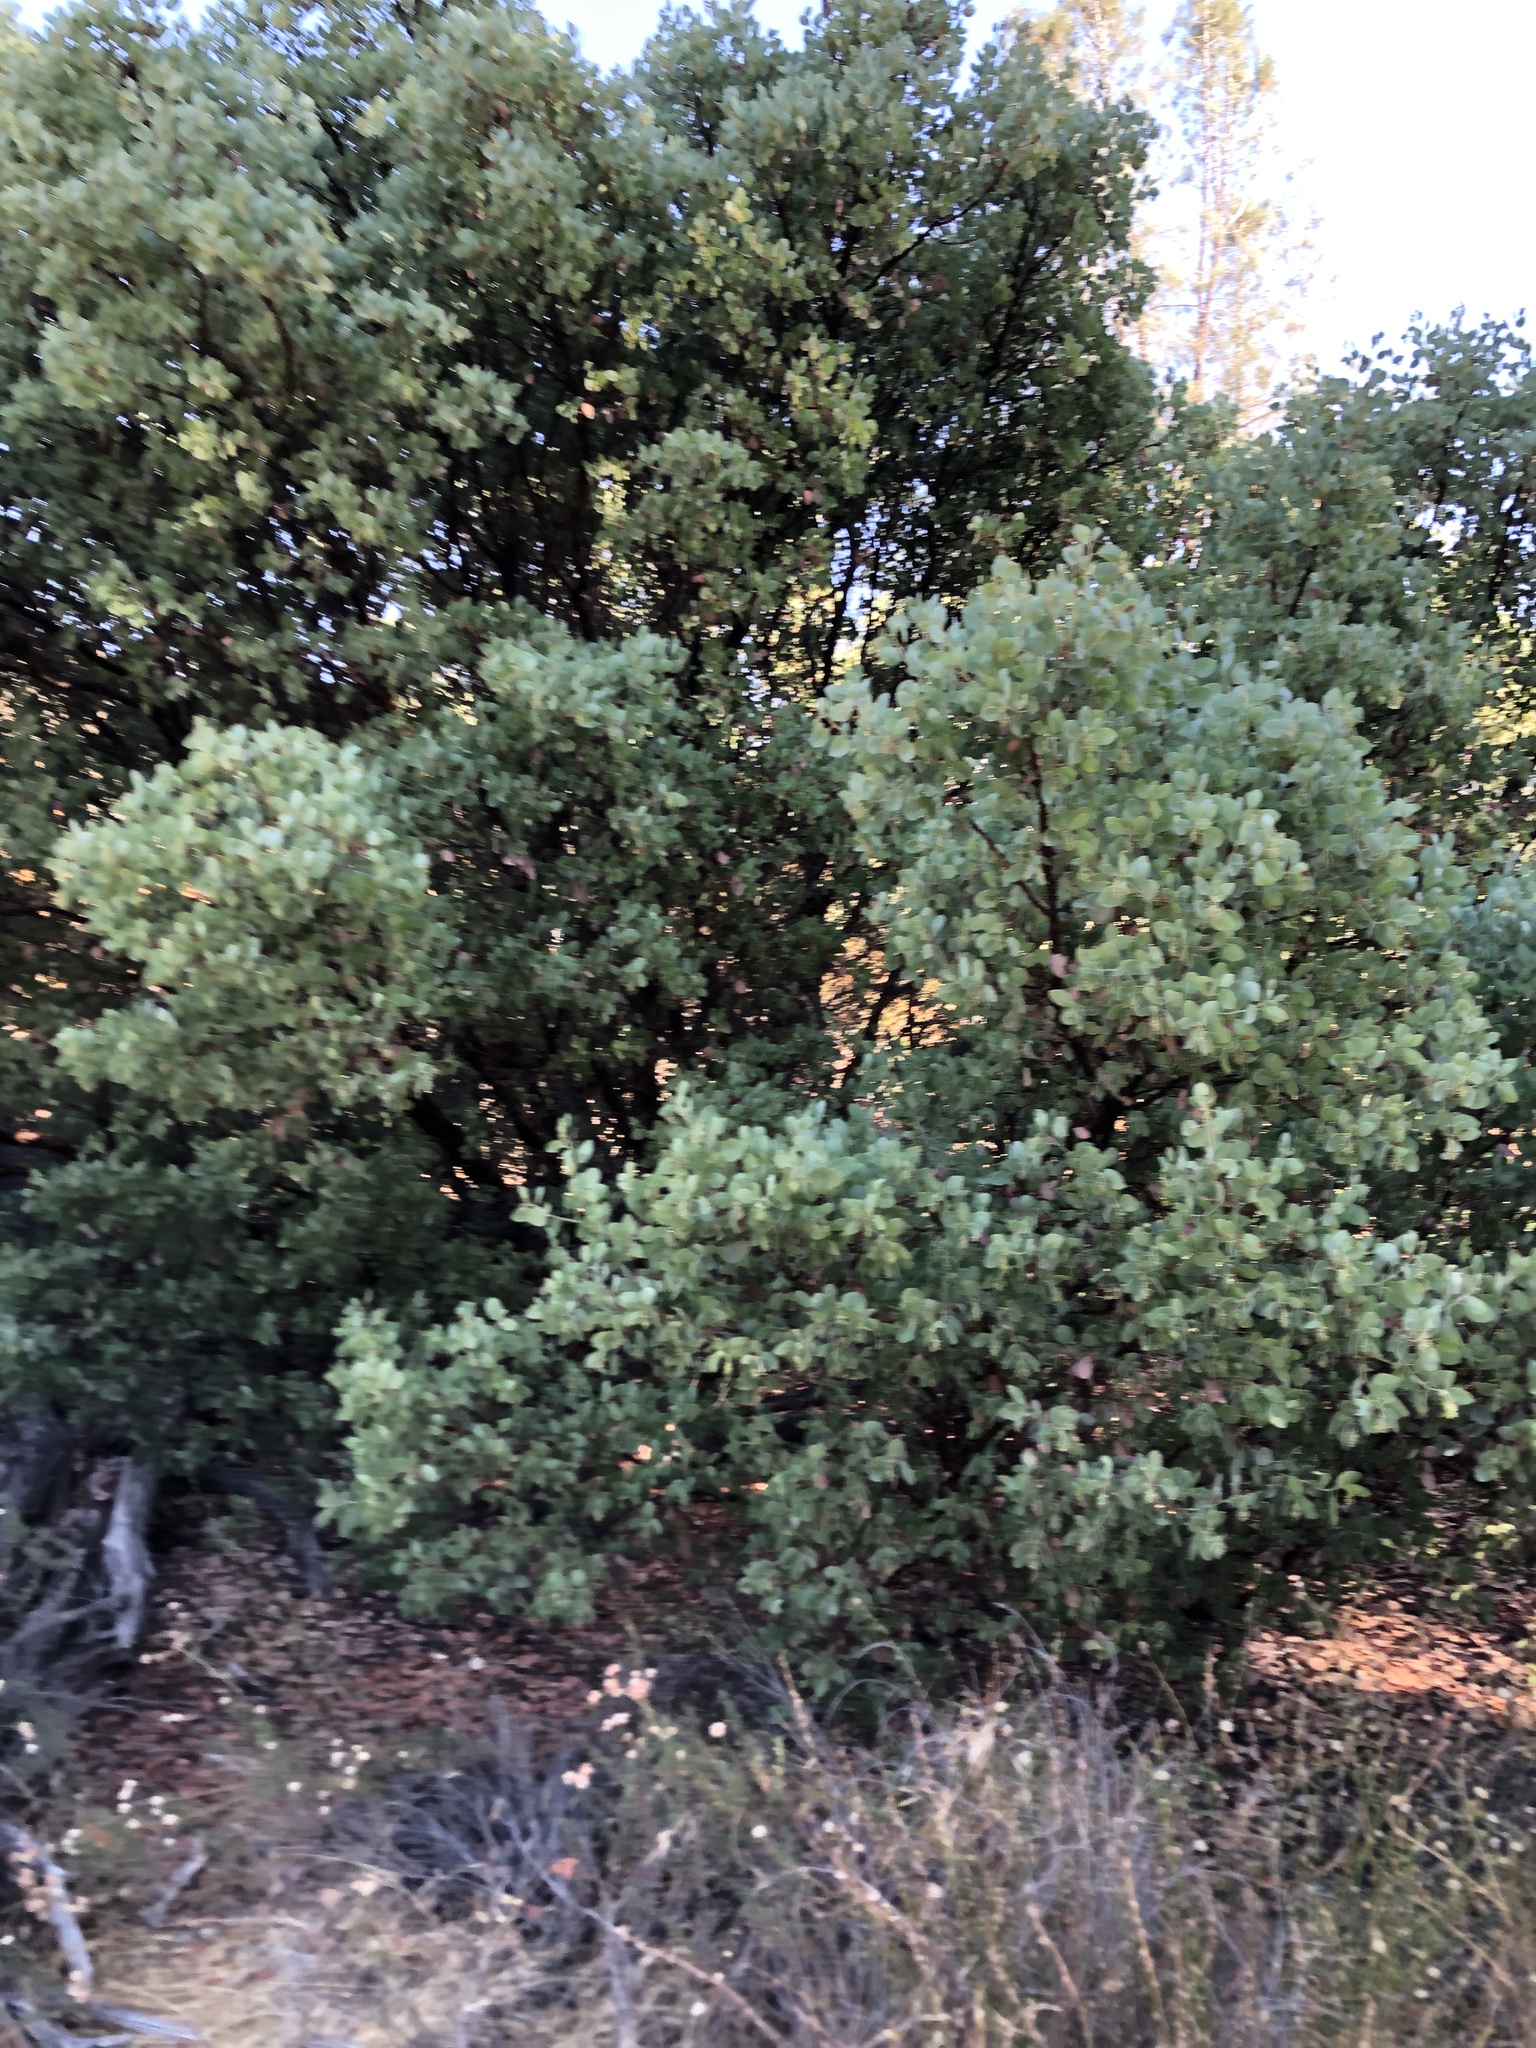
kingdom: Plantae
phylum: Tracheophyta
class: Magnoliopsida
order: Ericales
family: Ericaceae
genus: Arctostaphylos
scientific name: Arctostaphylos glauca
